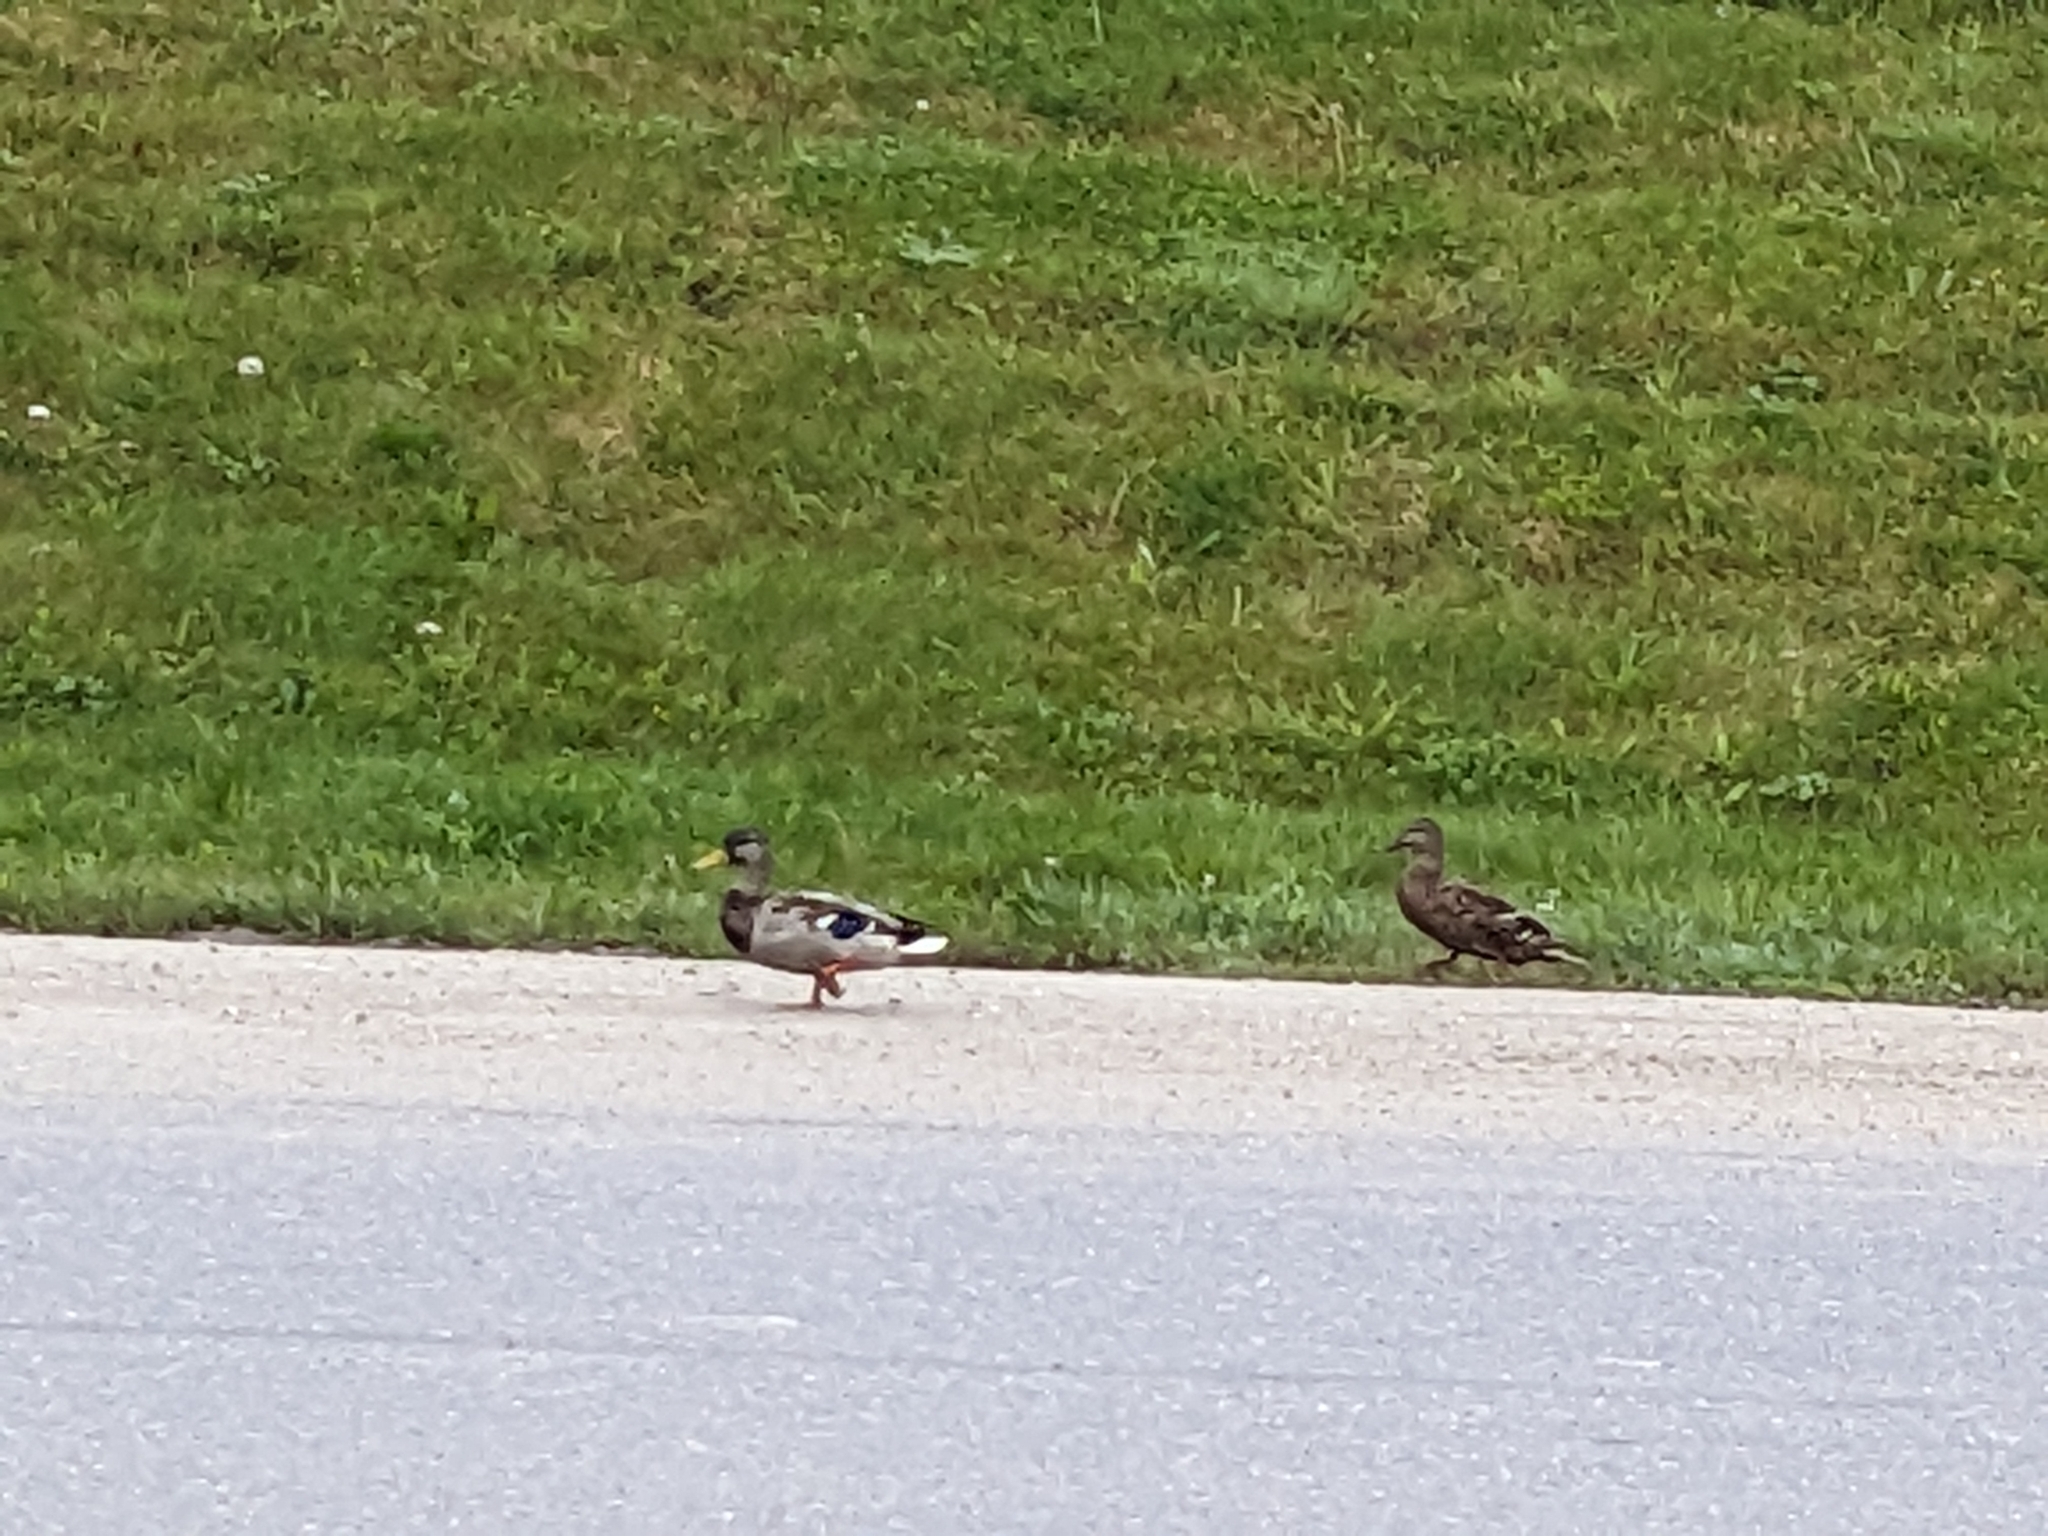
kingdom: Animalia
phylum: Chordata
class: Aves
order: Anseriformes
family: Anatidae
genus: Anas
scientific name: Anas platyrhynchos
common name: Mallard
